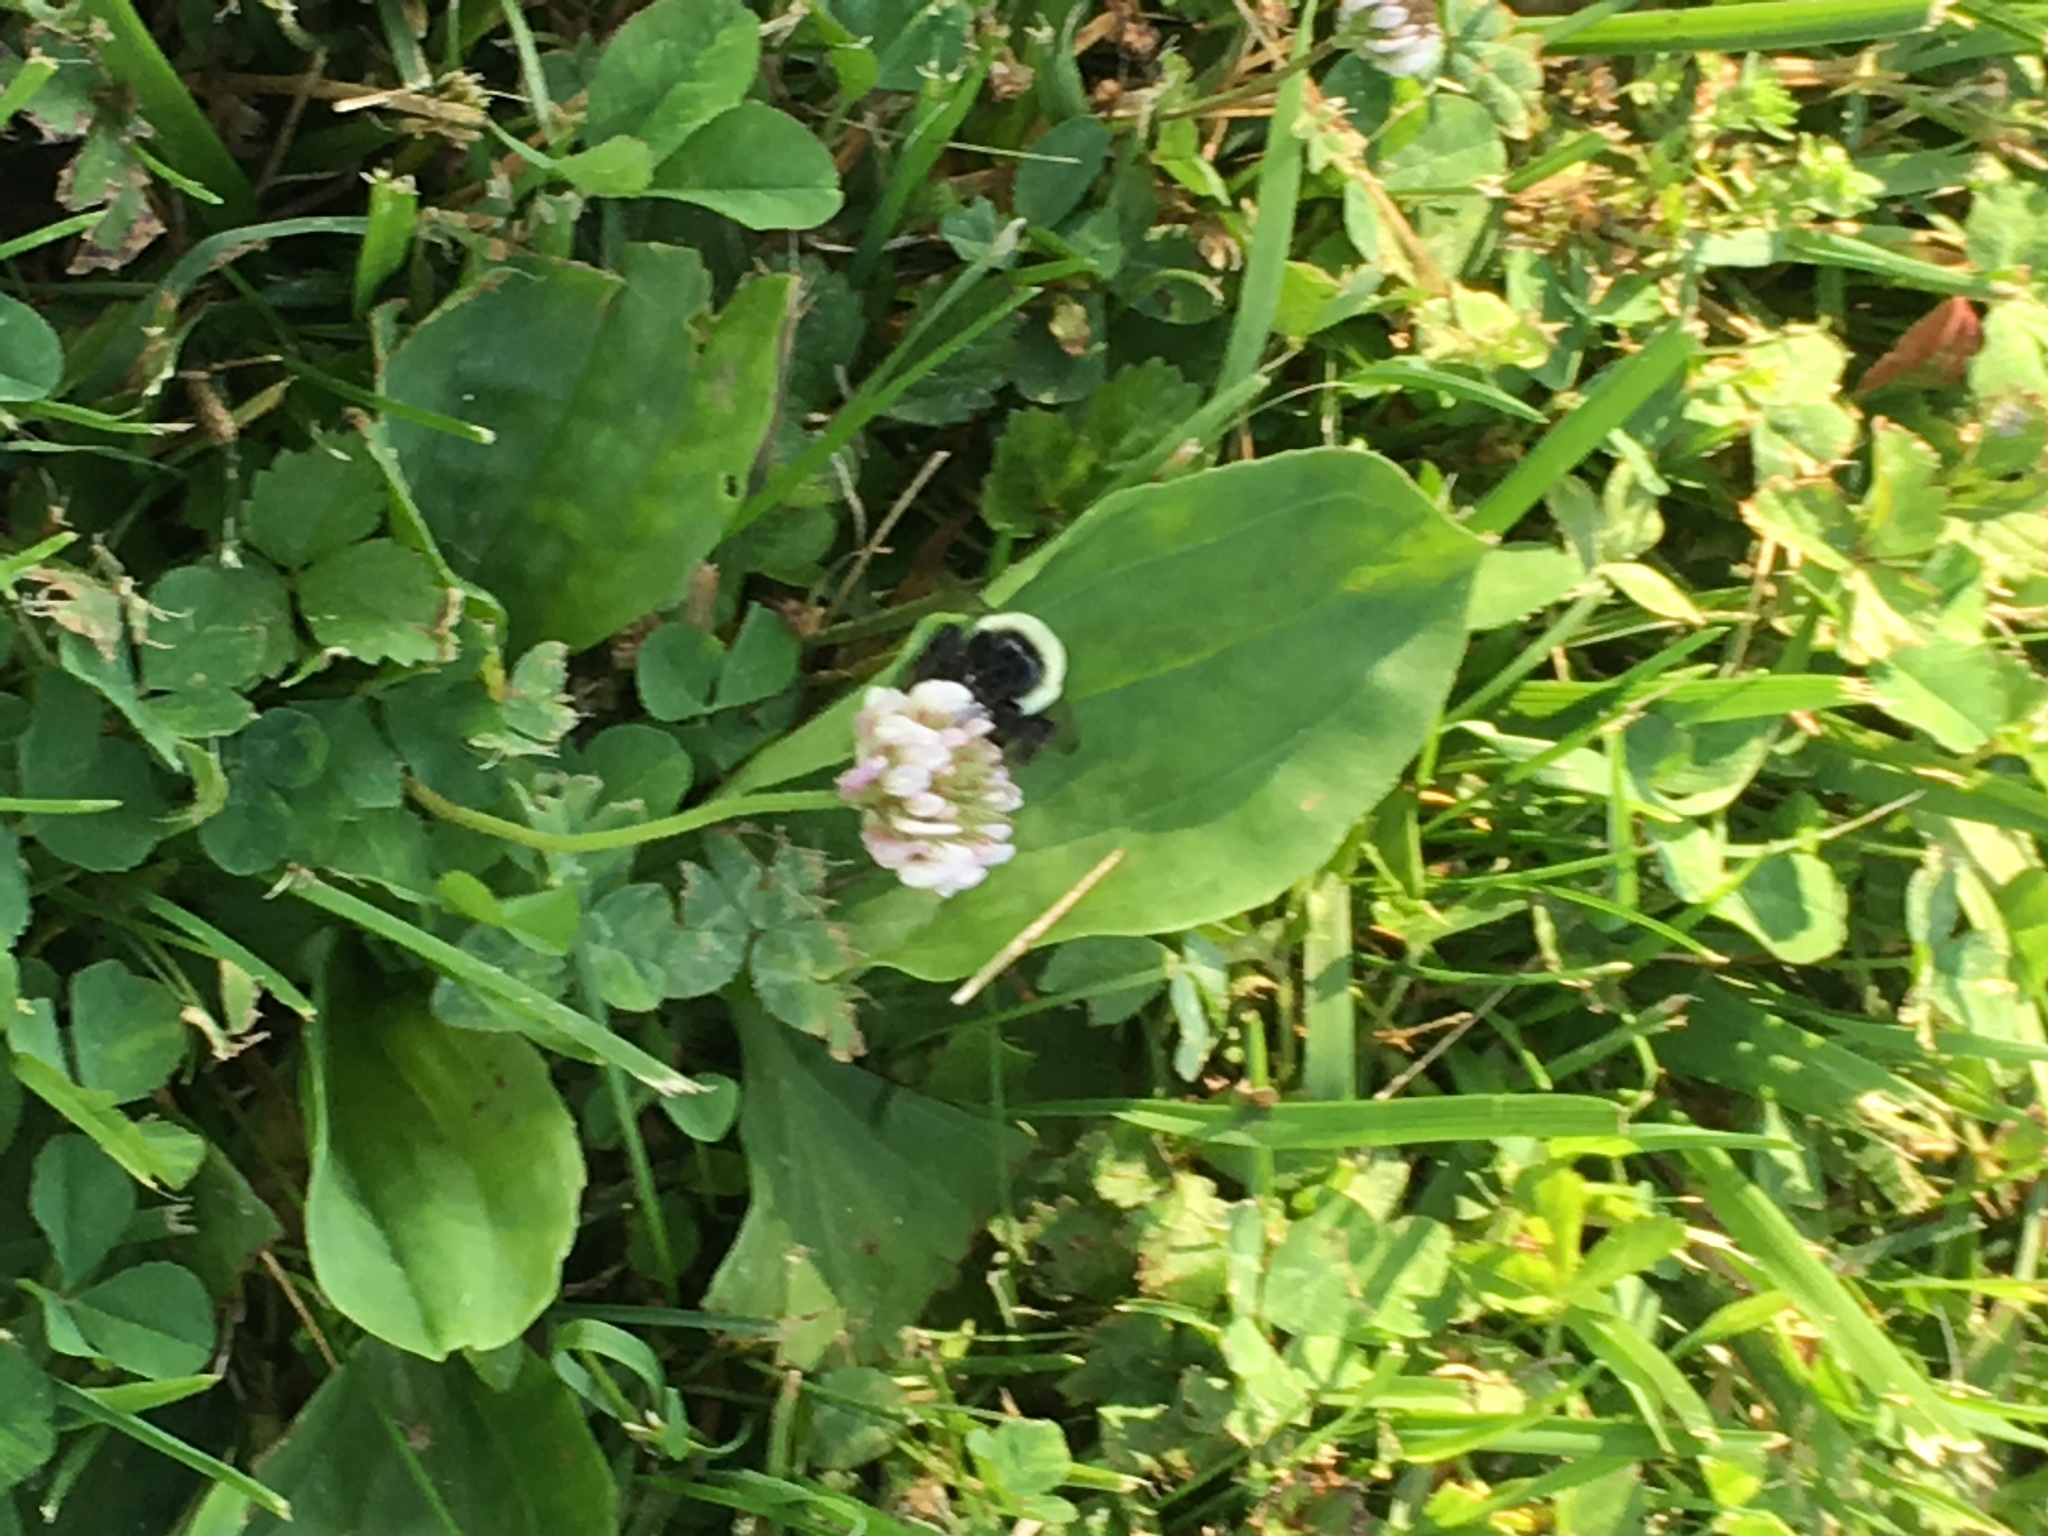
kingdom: Animalia
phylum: Arthropoda
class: Insecta
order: Hymenoptera
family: Apidae
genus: Bombus
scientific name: Bombus
